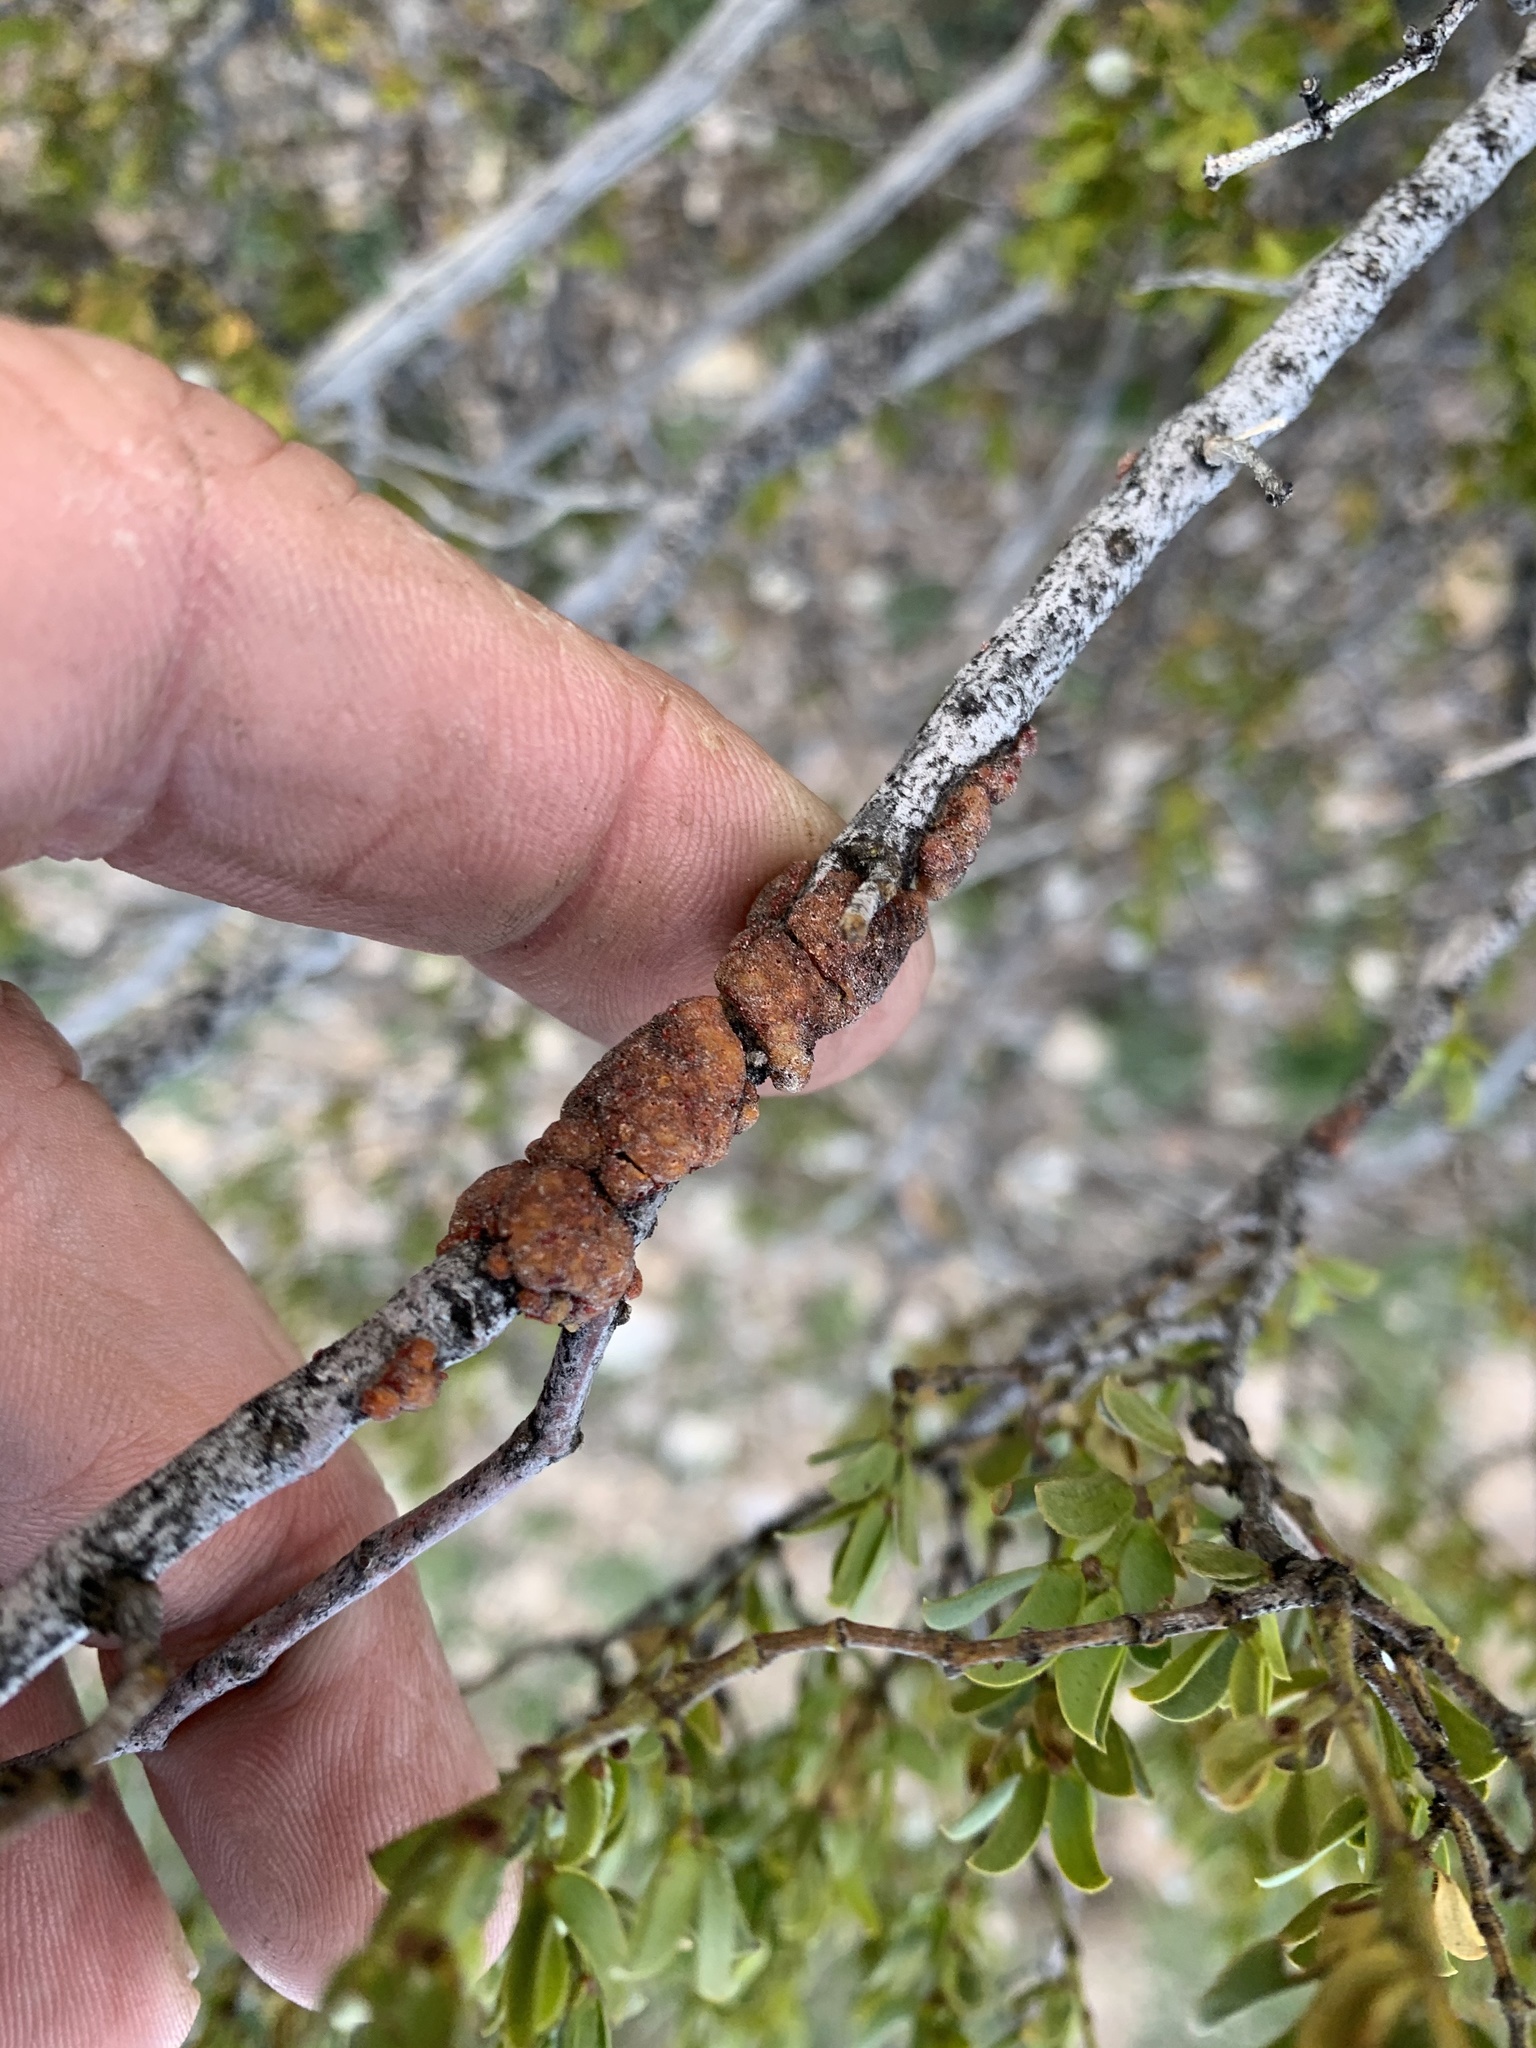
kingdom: Animalia
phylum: Arthropoda
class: Insecta
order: Hemiptera
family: Kerriidae
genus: Tachardiella
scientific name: Tachardiella larreae
